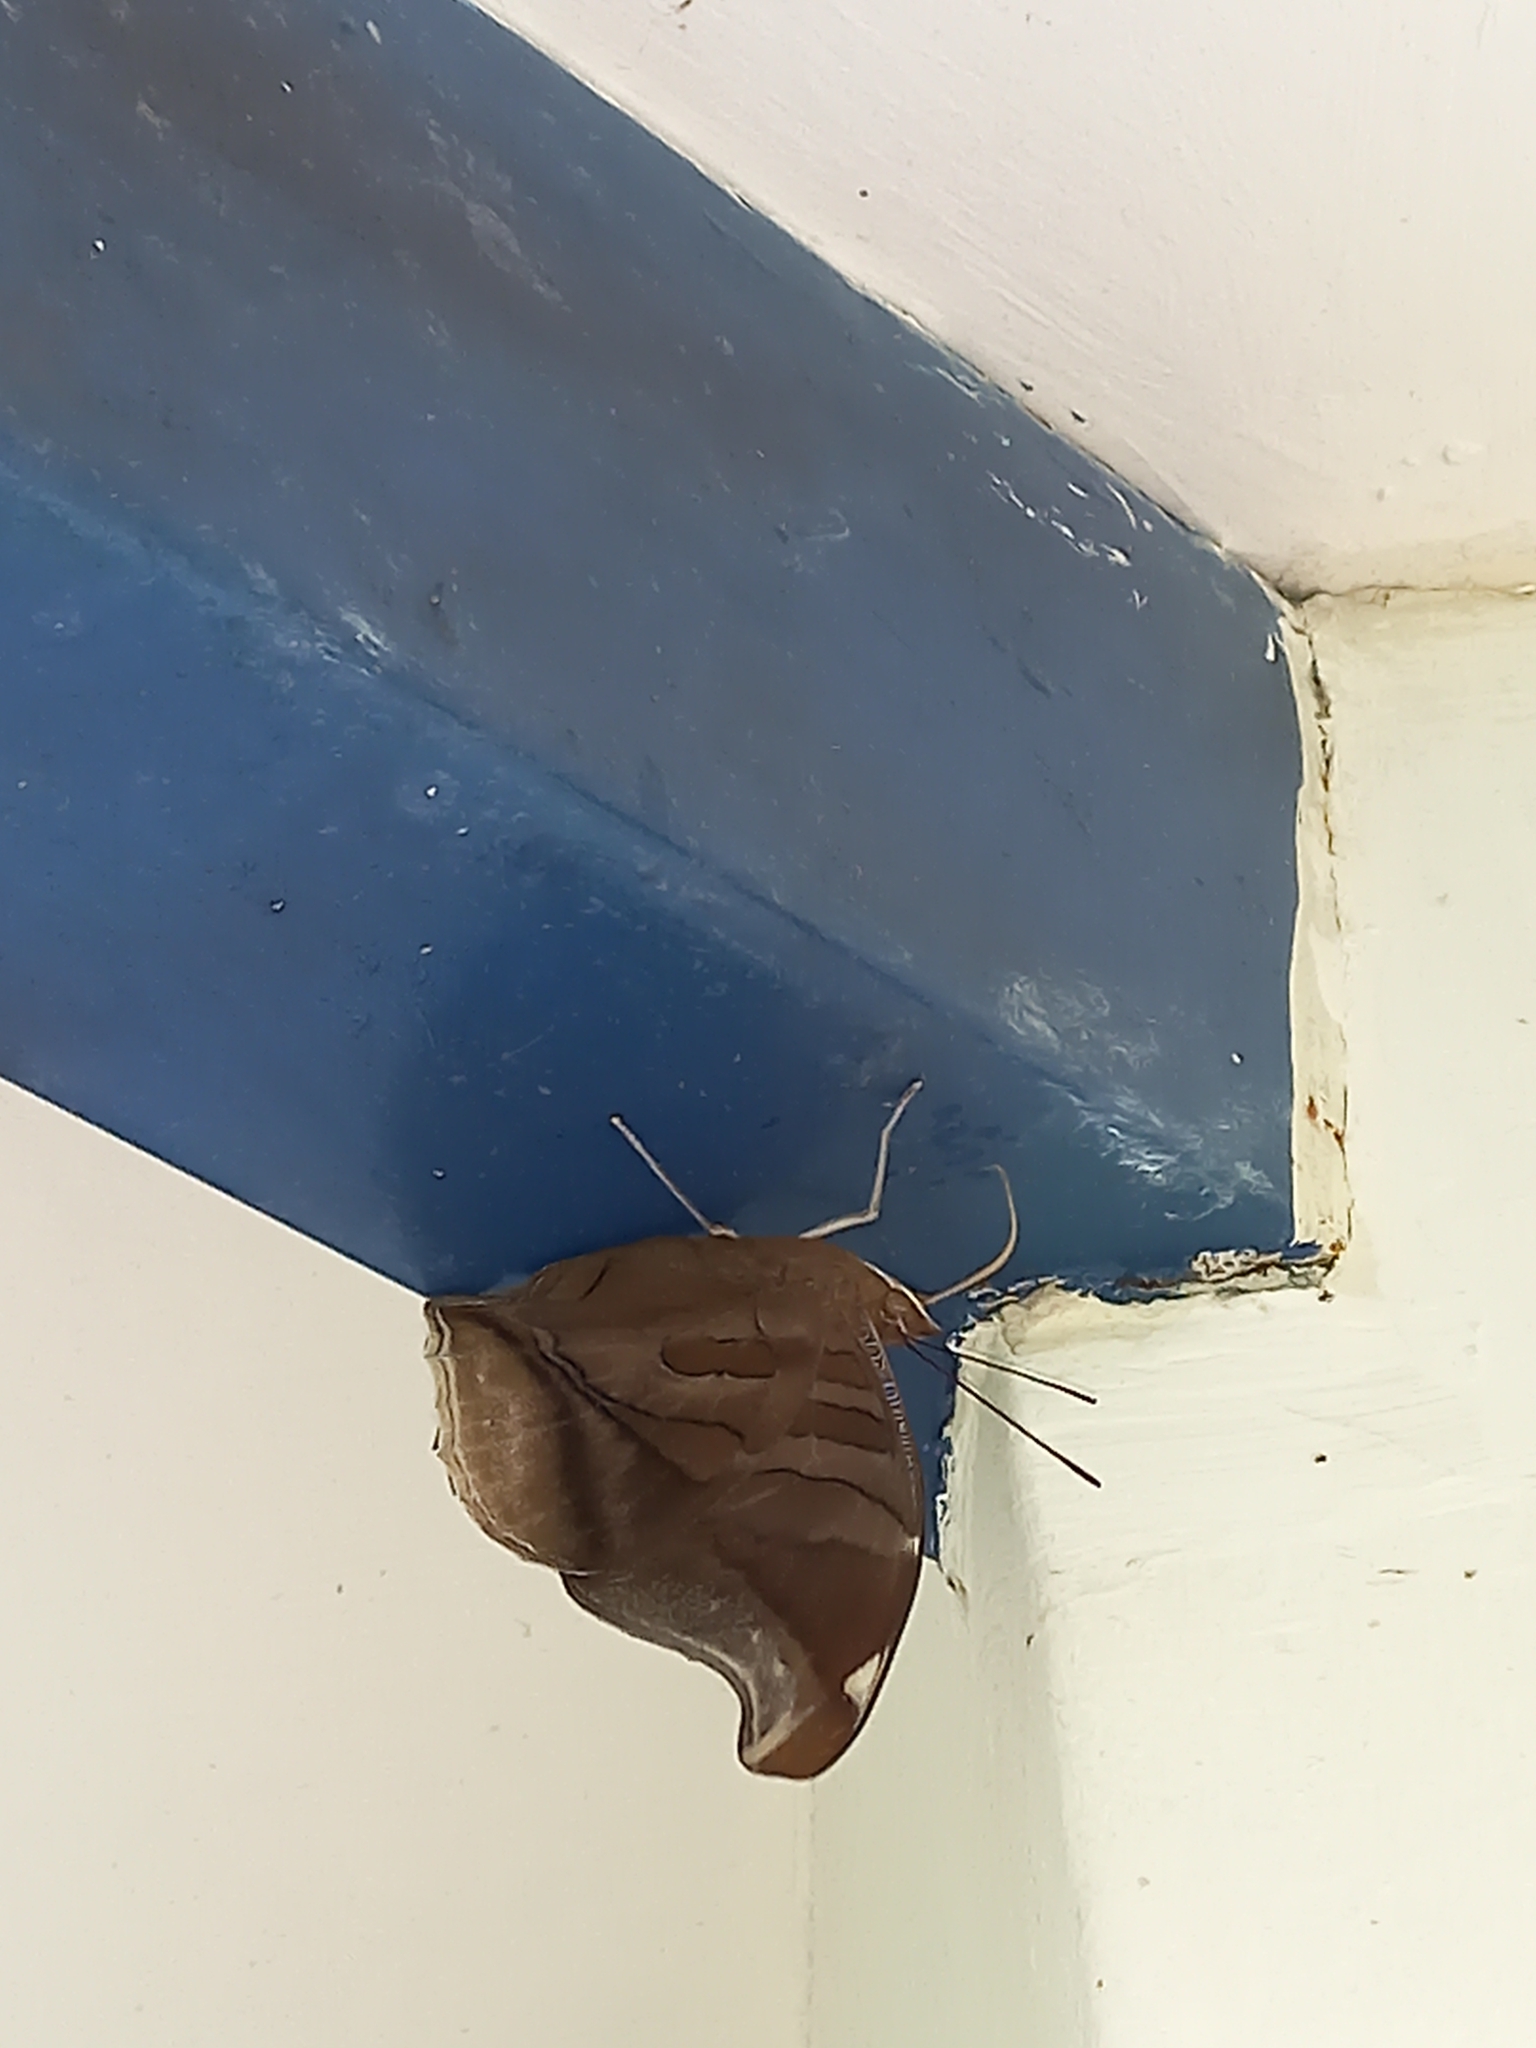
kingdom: Animalia
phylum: Arthropoda
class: Insecta
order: Lepidoptera
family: Nymphalidae
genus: Historis
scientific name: Historis odius
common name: Orion cecropian
